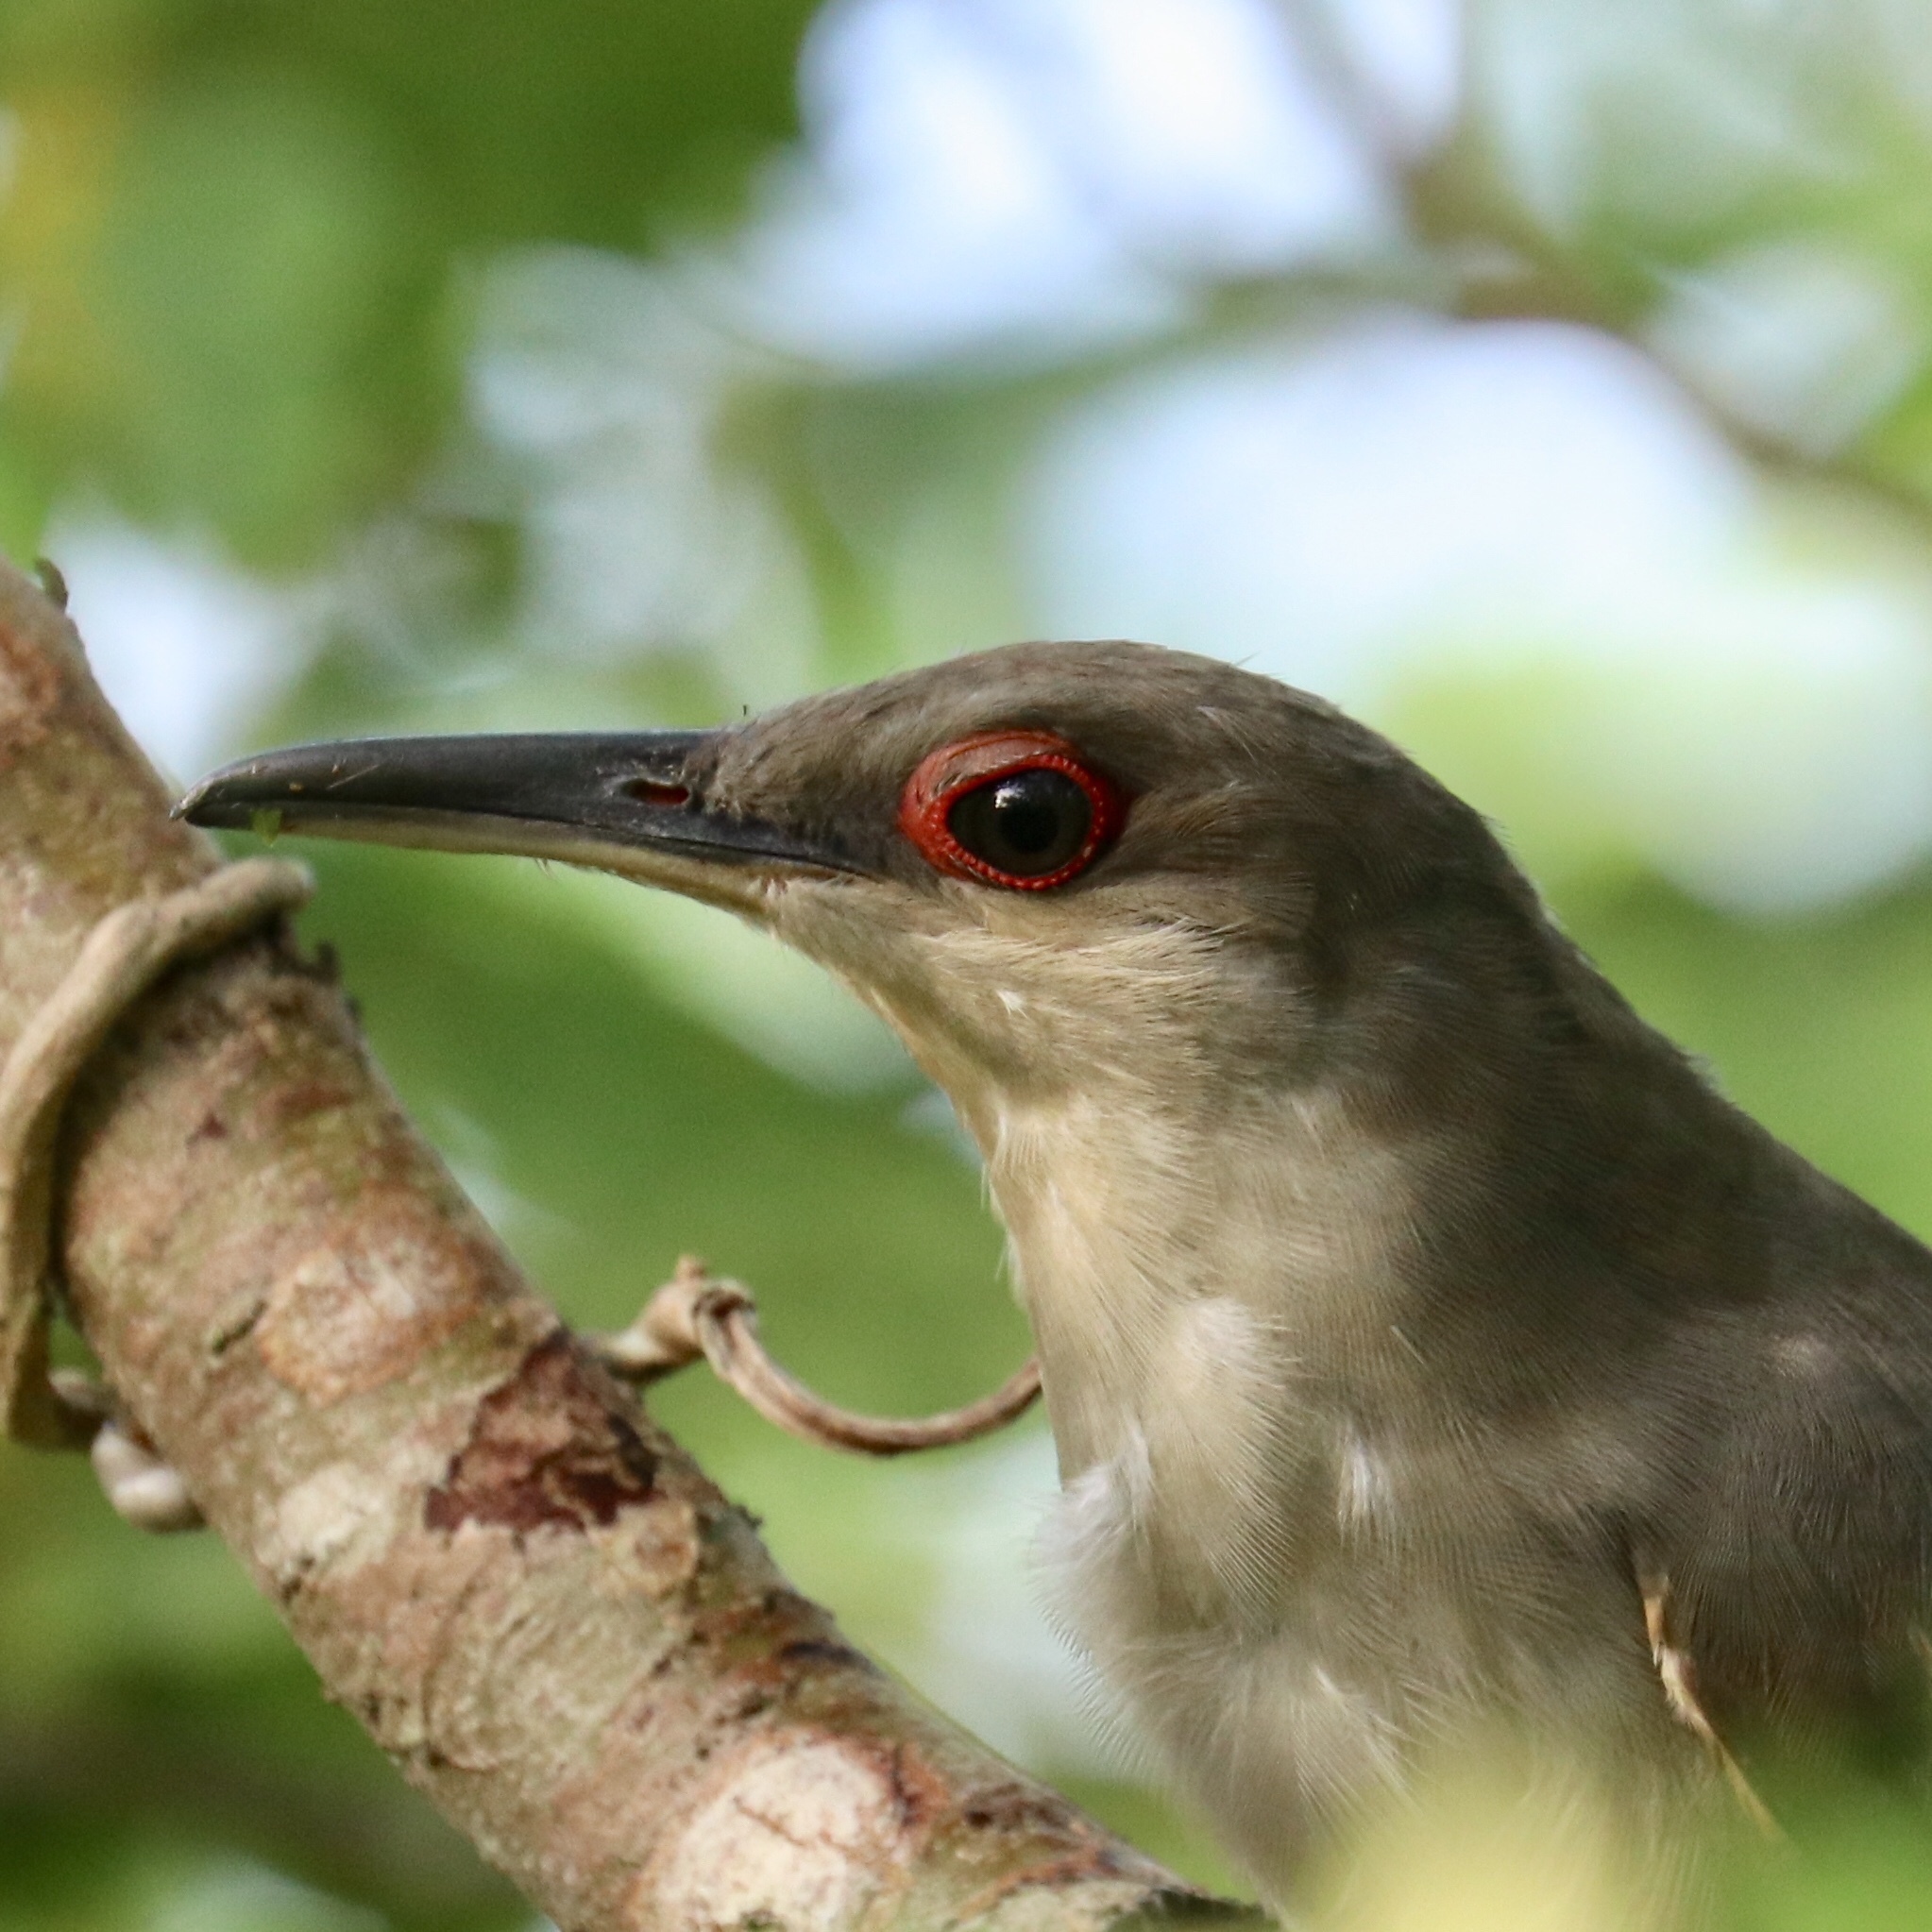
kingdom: Animalia
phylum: Chordata
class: Aves
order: Cuculiformes
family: Cuculidae
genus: Saurothera
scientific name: Saurothera longirostris
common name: Hispaniolan lizard-cuckoo
